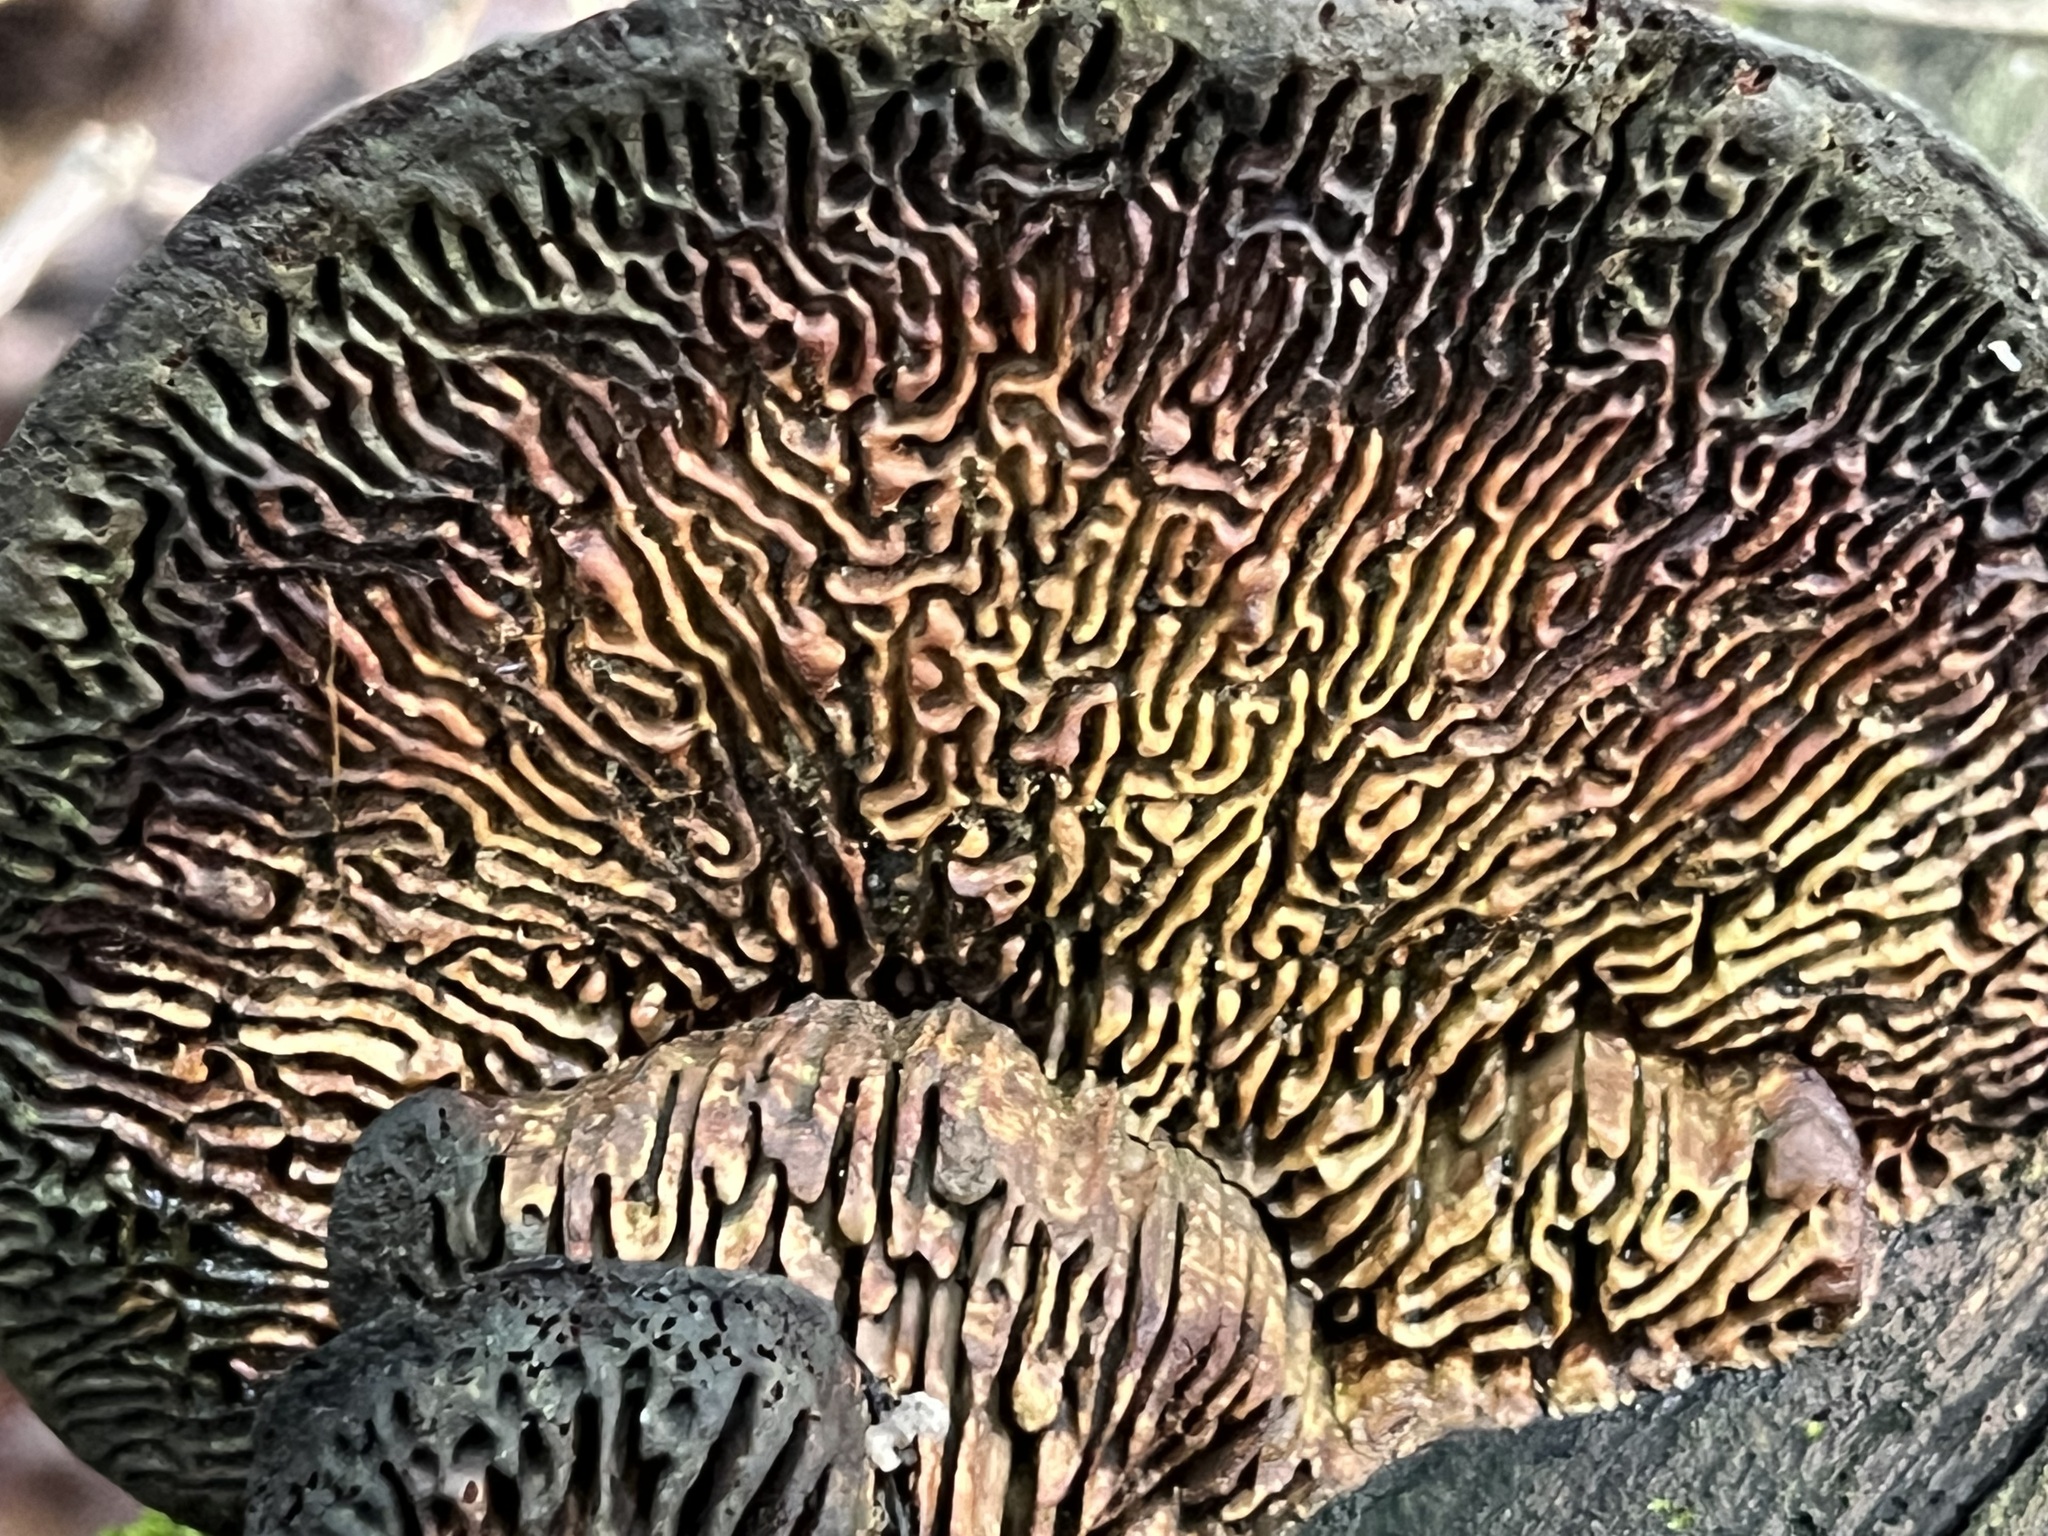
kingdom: Fungi
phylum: Basidiomycota
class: Agaricomycetes
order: Polyporales
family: Fomitopsidaceae
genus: Fomitopsis
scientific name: Fomitopsis
